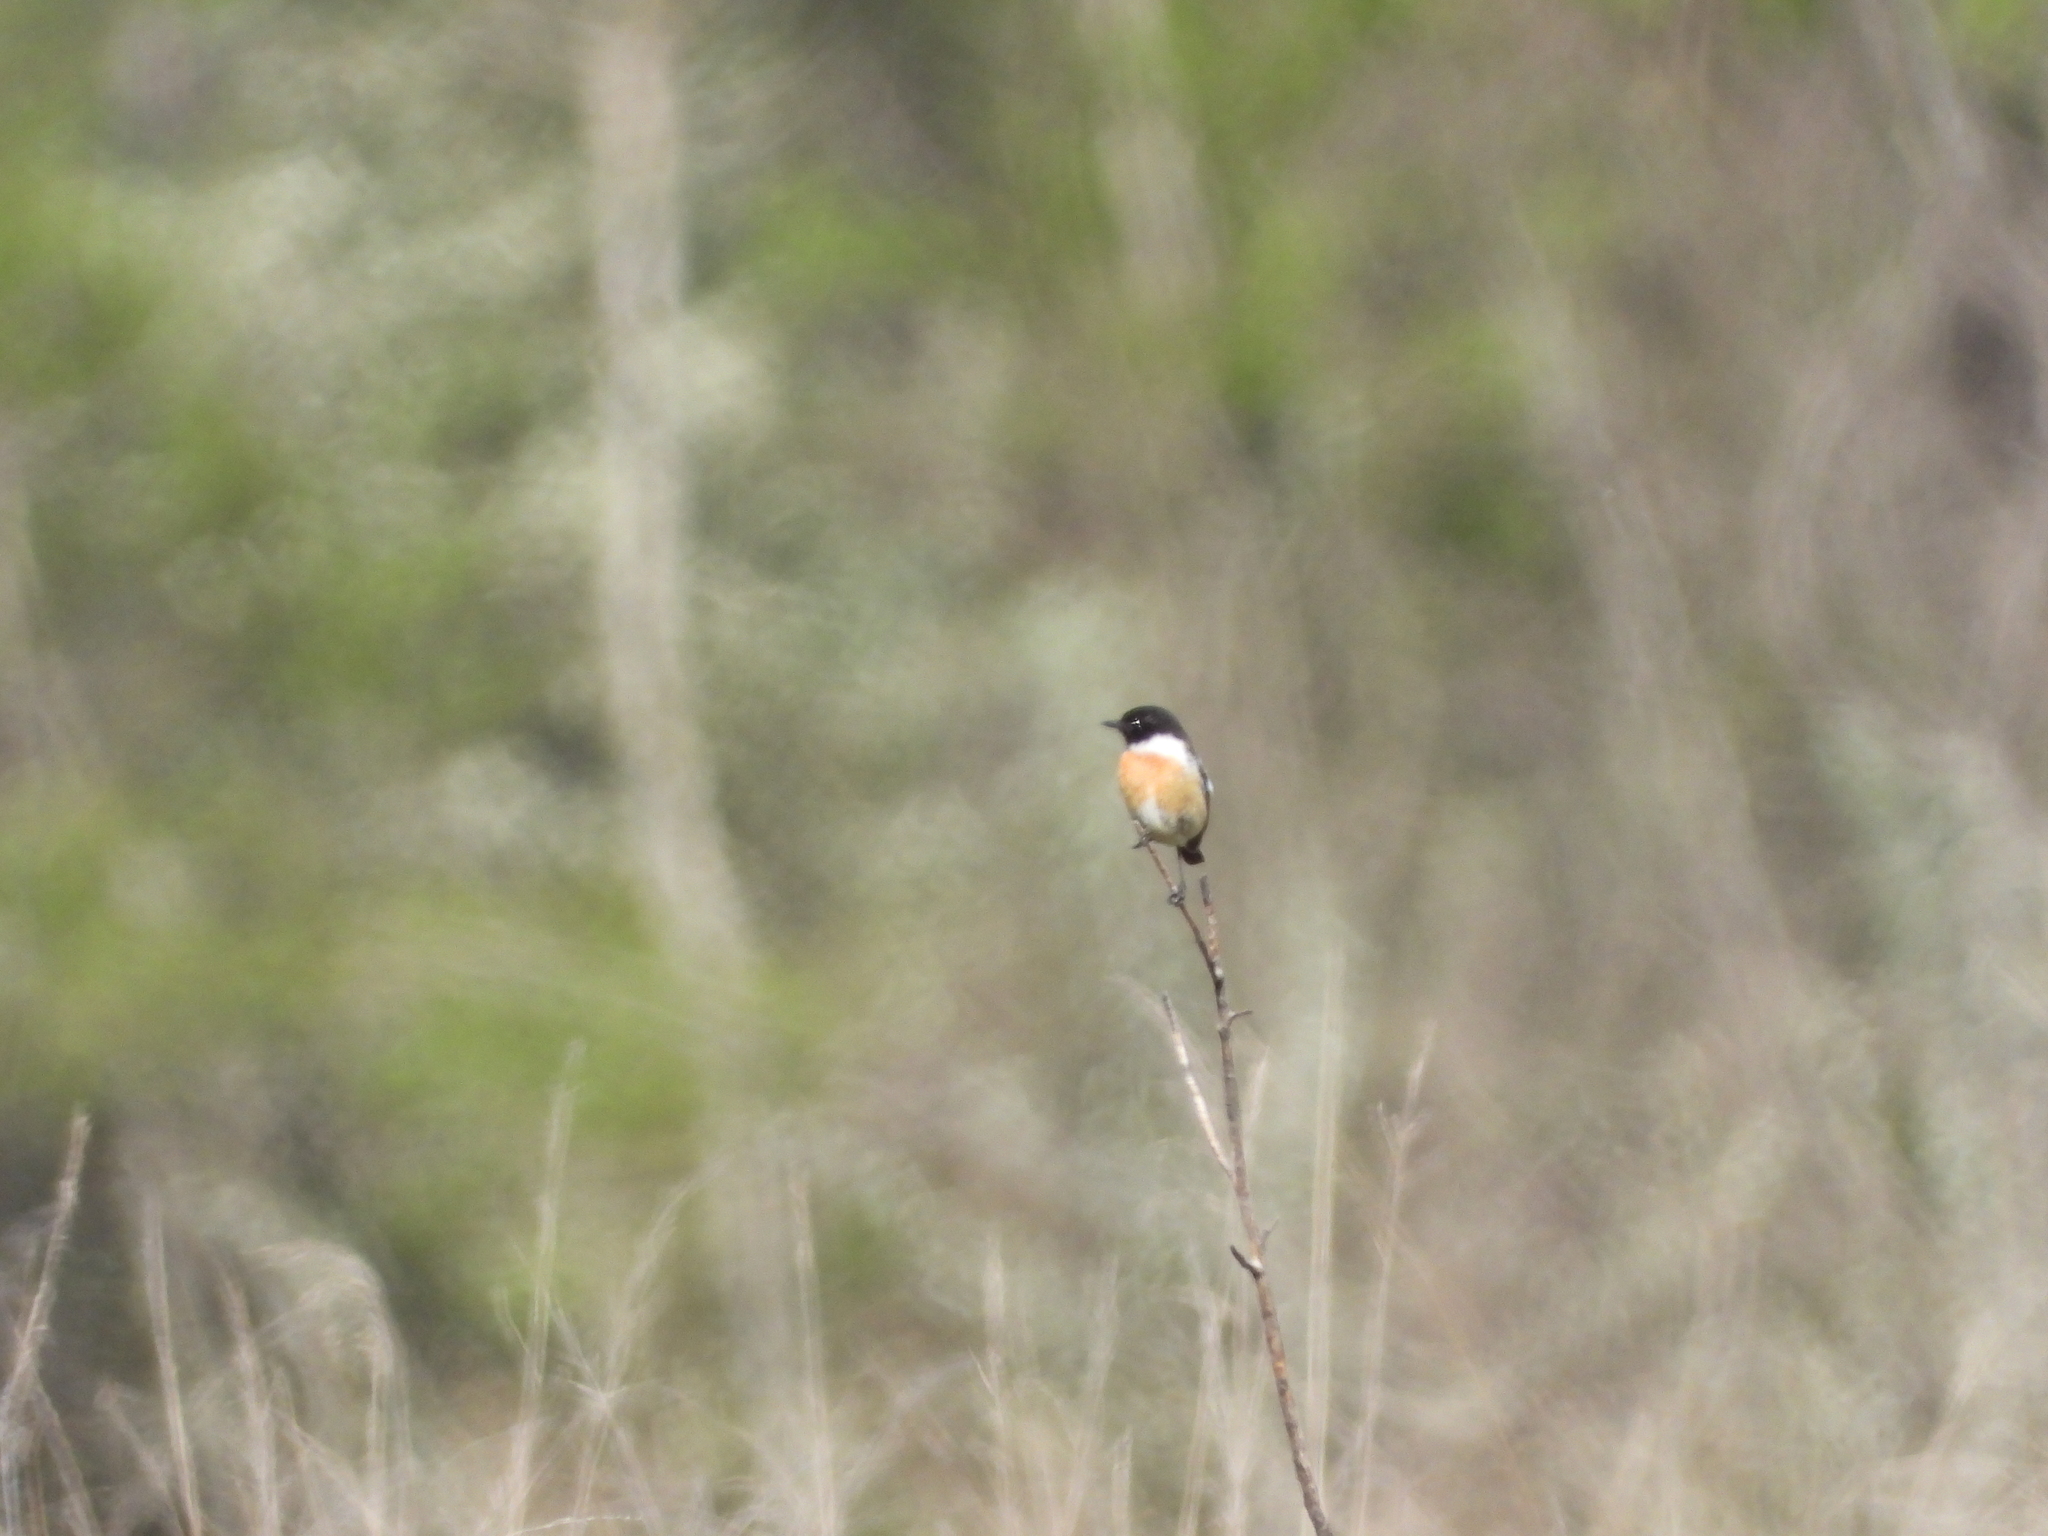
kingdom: Animalia
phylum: Chordata
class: Aves
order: Passeriformes
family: Muscicapidae
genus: Saxicola
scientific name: Saxicola rubicola
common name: European stonechat
